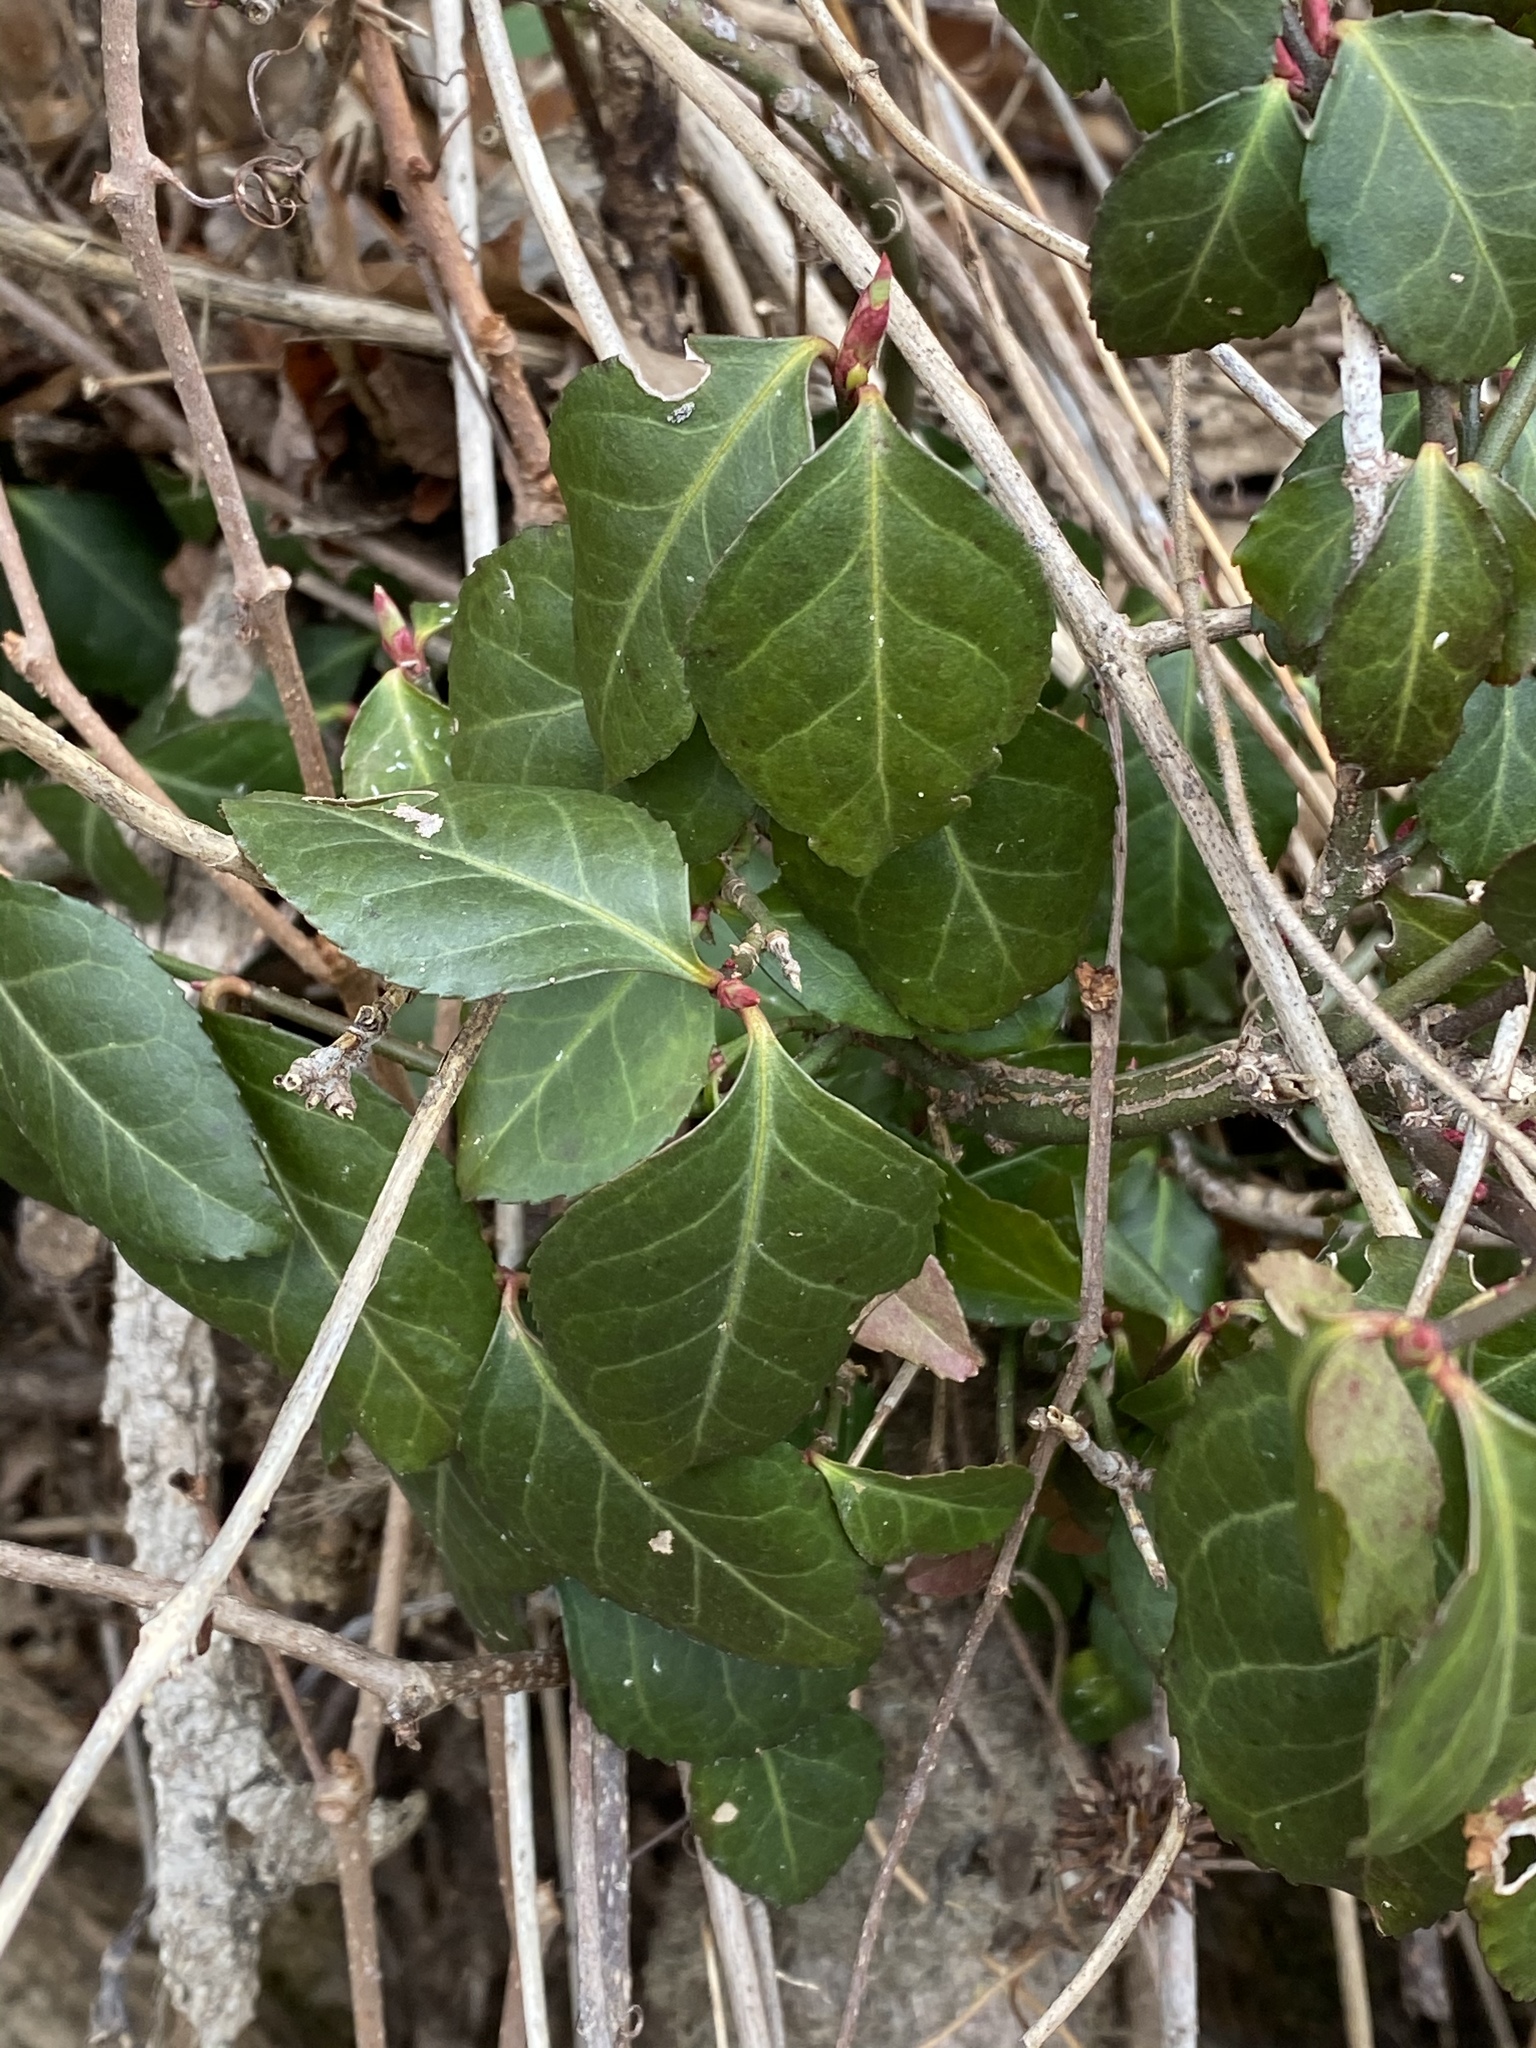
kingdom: Plantae
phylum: Tracheophyta
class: Magnoliopsida
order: Celastrales
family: Celastraceae
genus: Euonymus
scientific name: Euonymus fortunei
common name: Climbing euonymus
